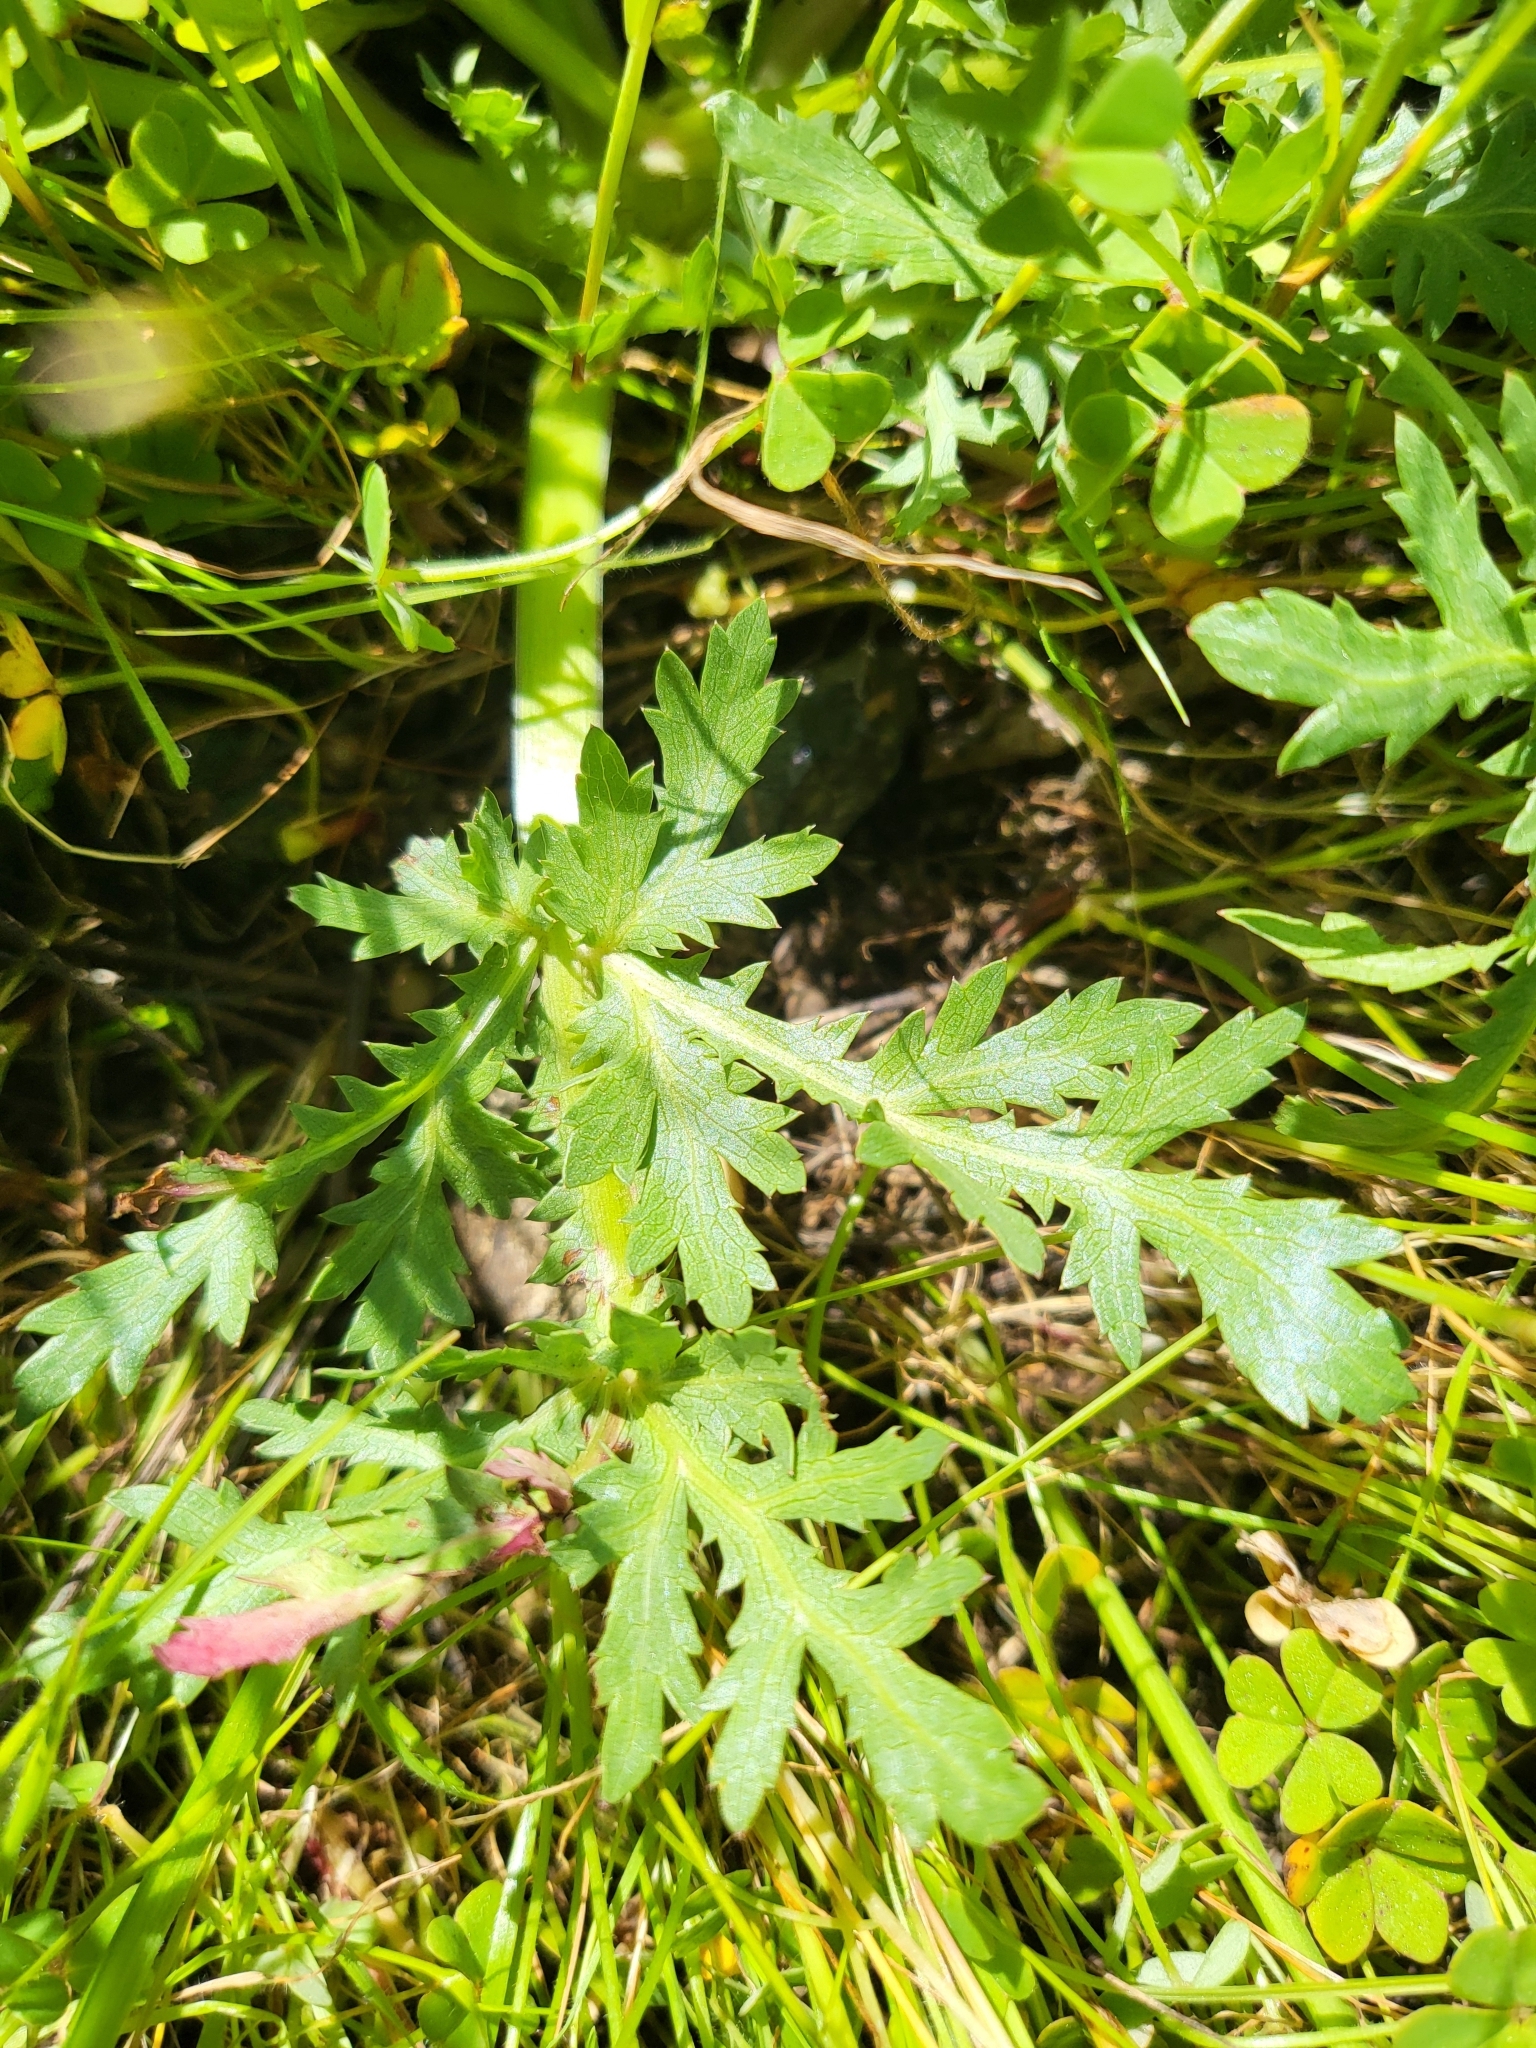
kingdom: Plantae
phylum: Tracheophyta
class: Magnoliopsida
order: Apiales
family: Apiaceae
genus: Sanicula
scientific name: Sanicula bipinnatifida
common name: Shoe-buttons
